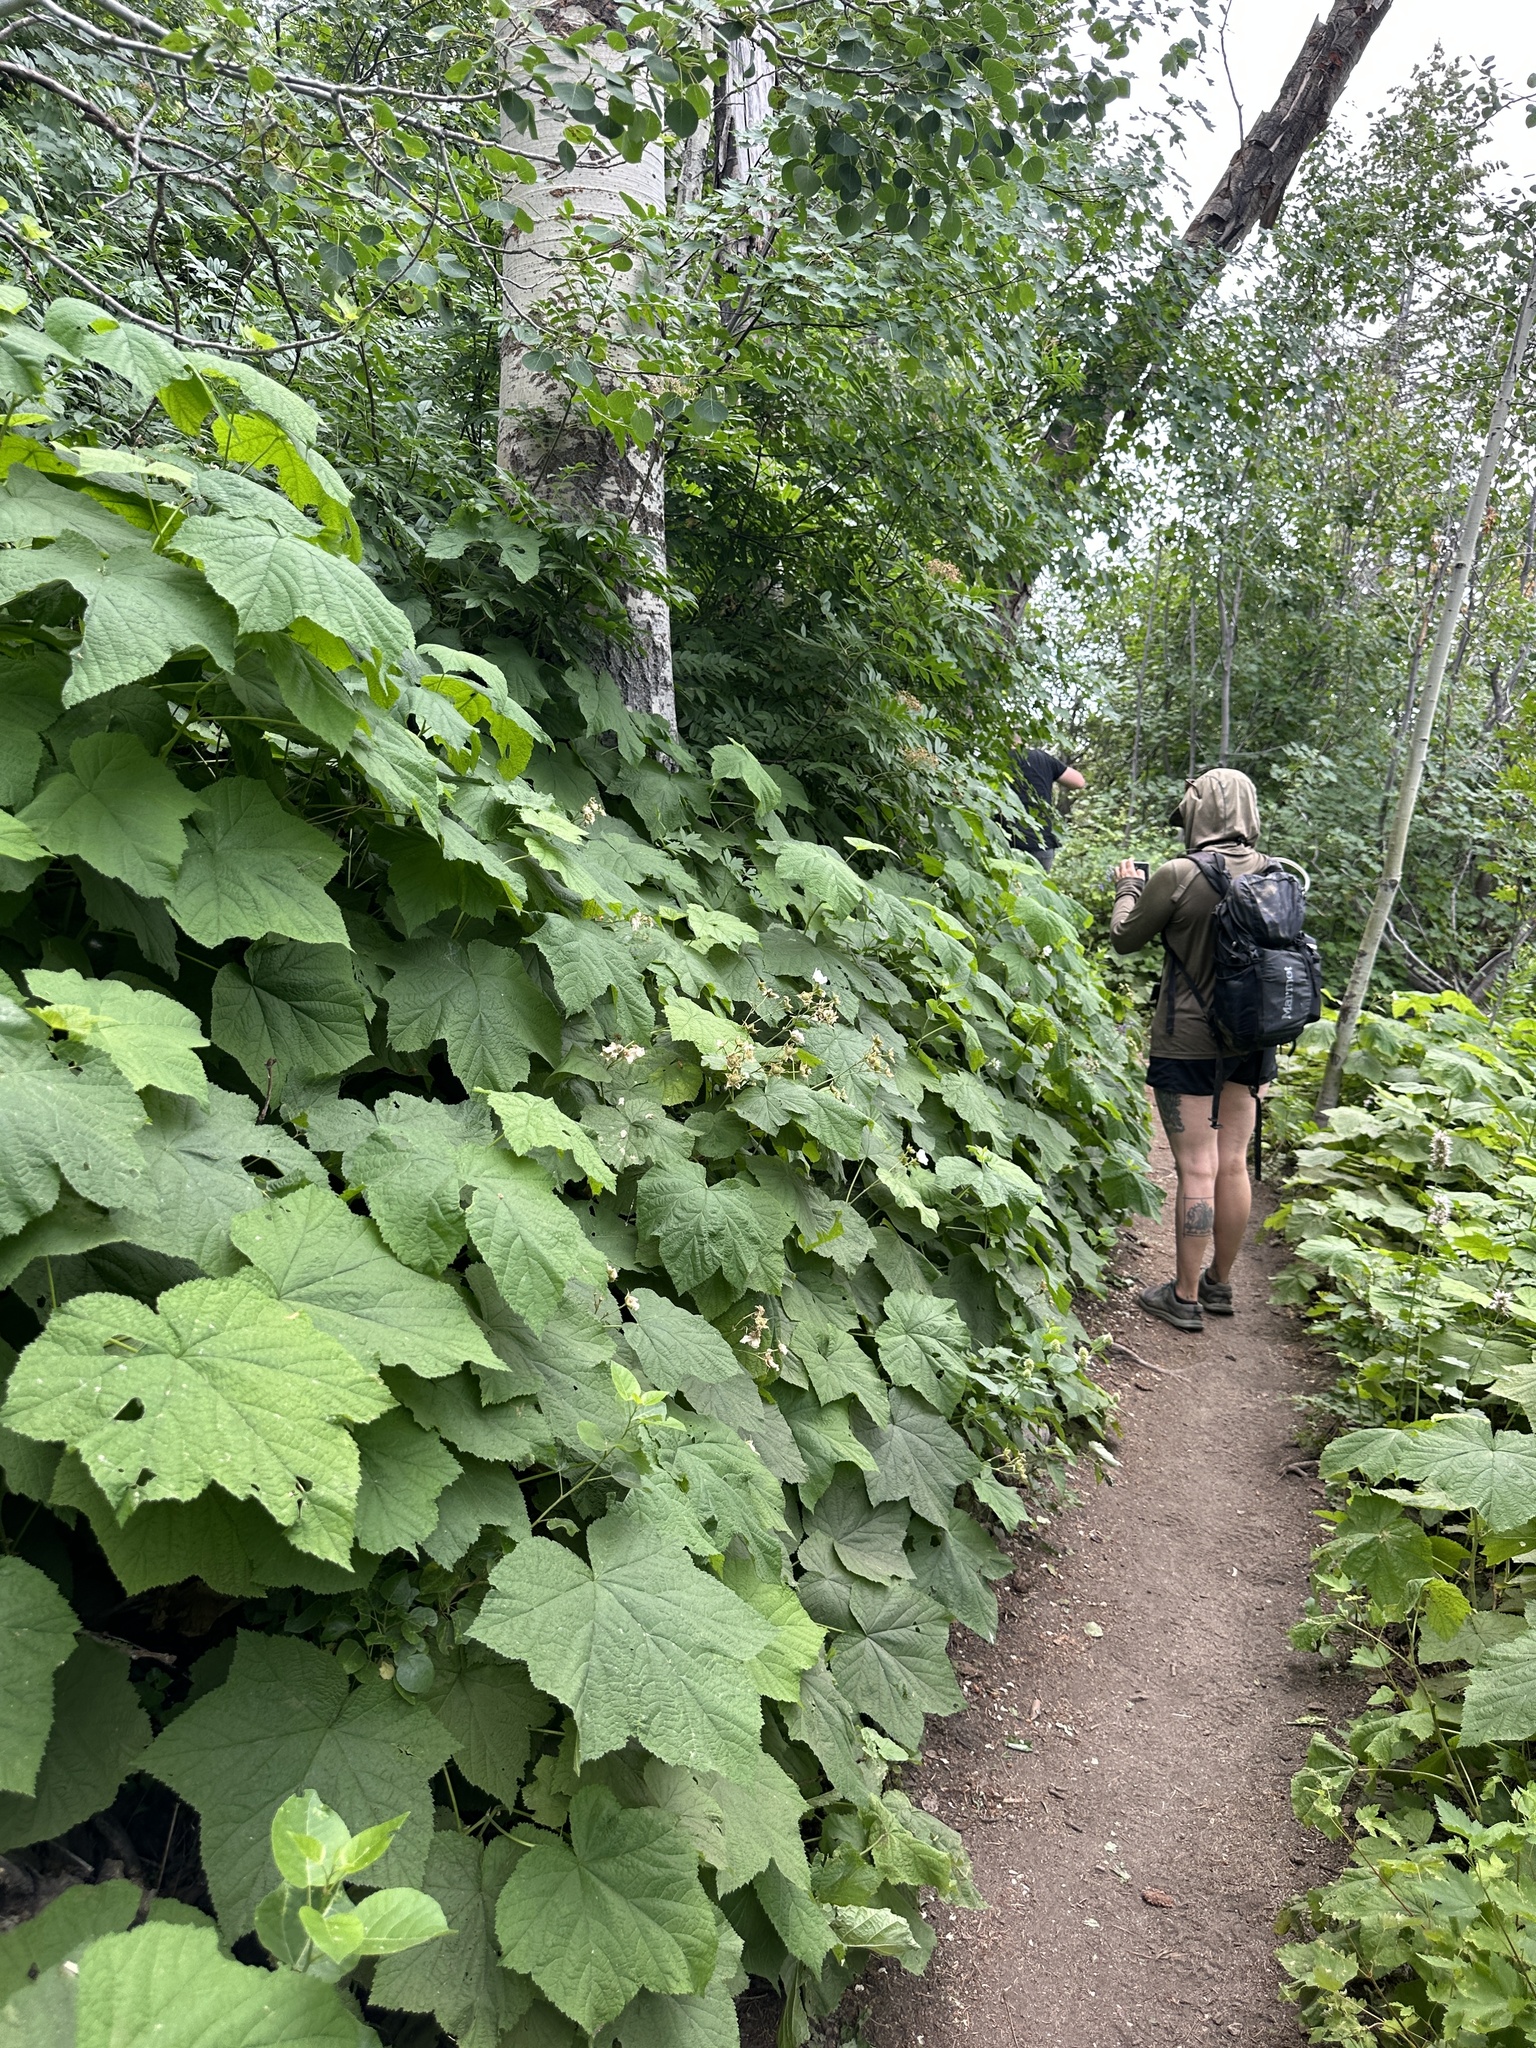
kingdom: Plantae
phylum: Tracheophyta
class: Magnoliopsida
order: Rosales
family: Rosaceae
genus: Rubus
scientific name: Rubus parviflorus
